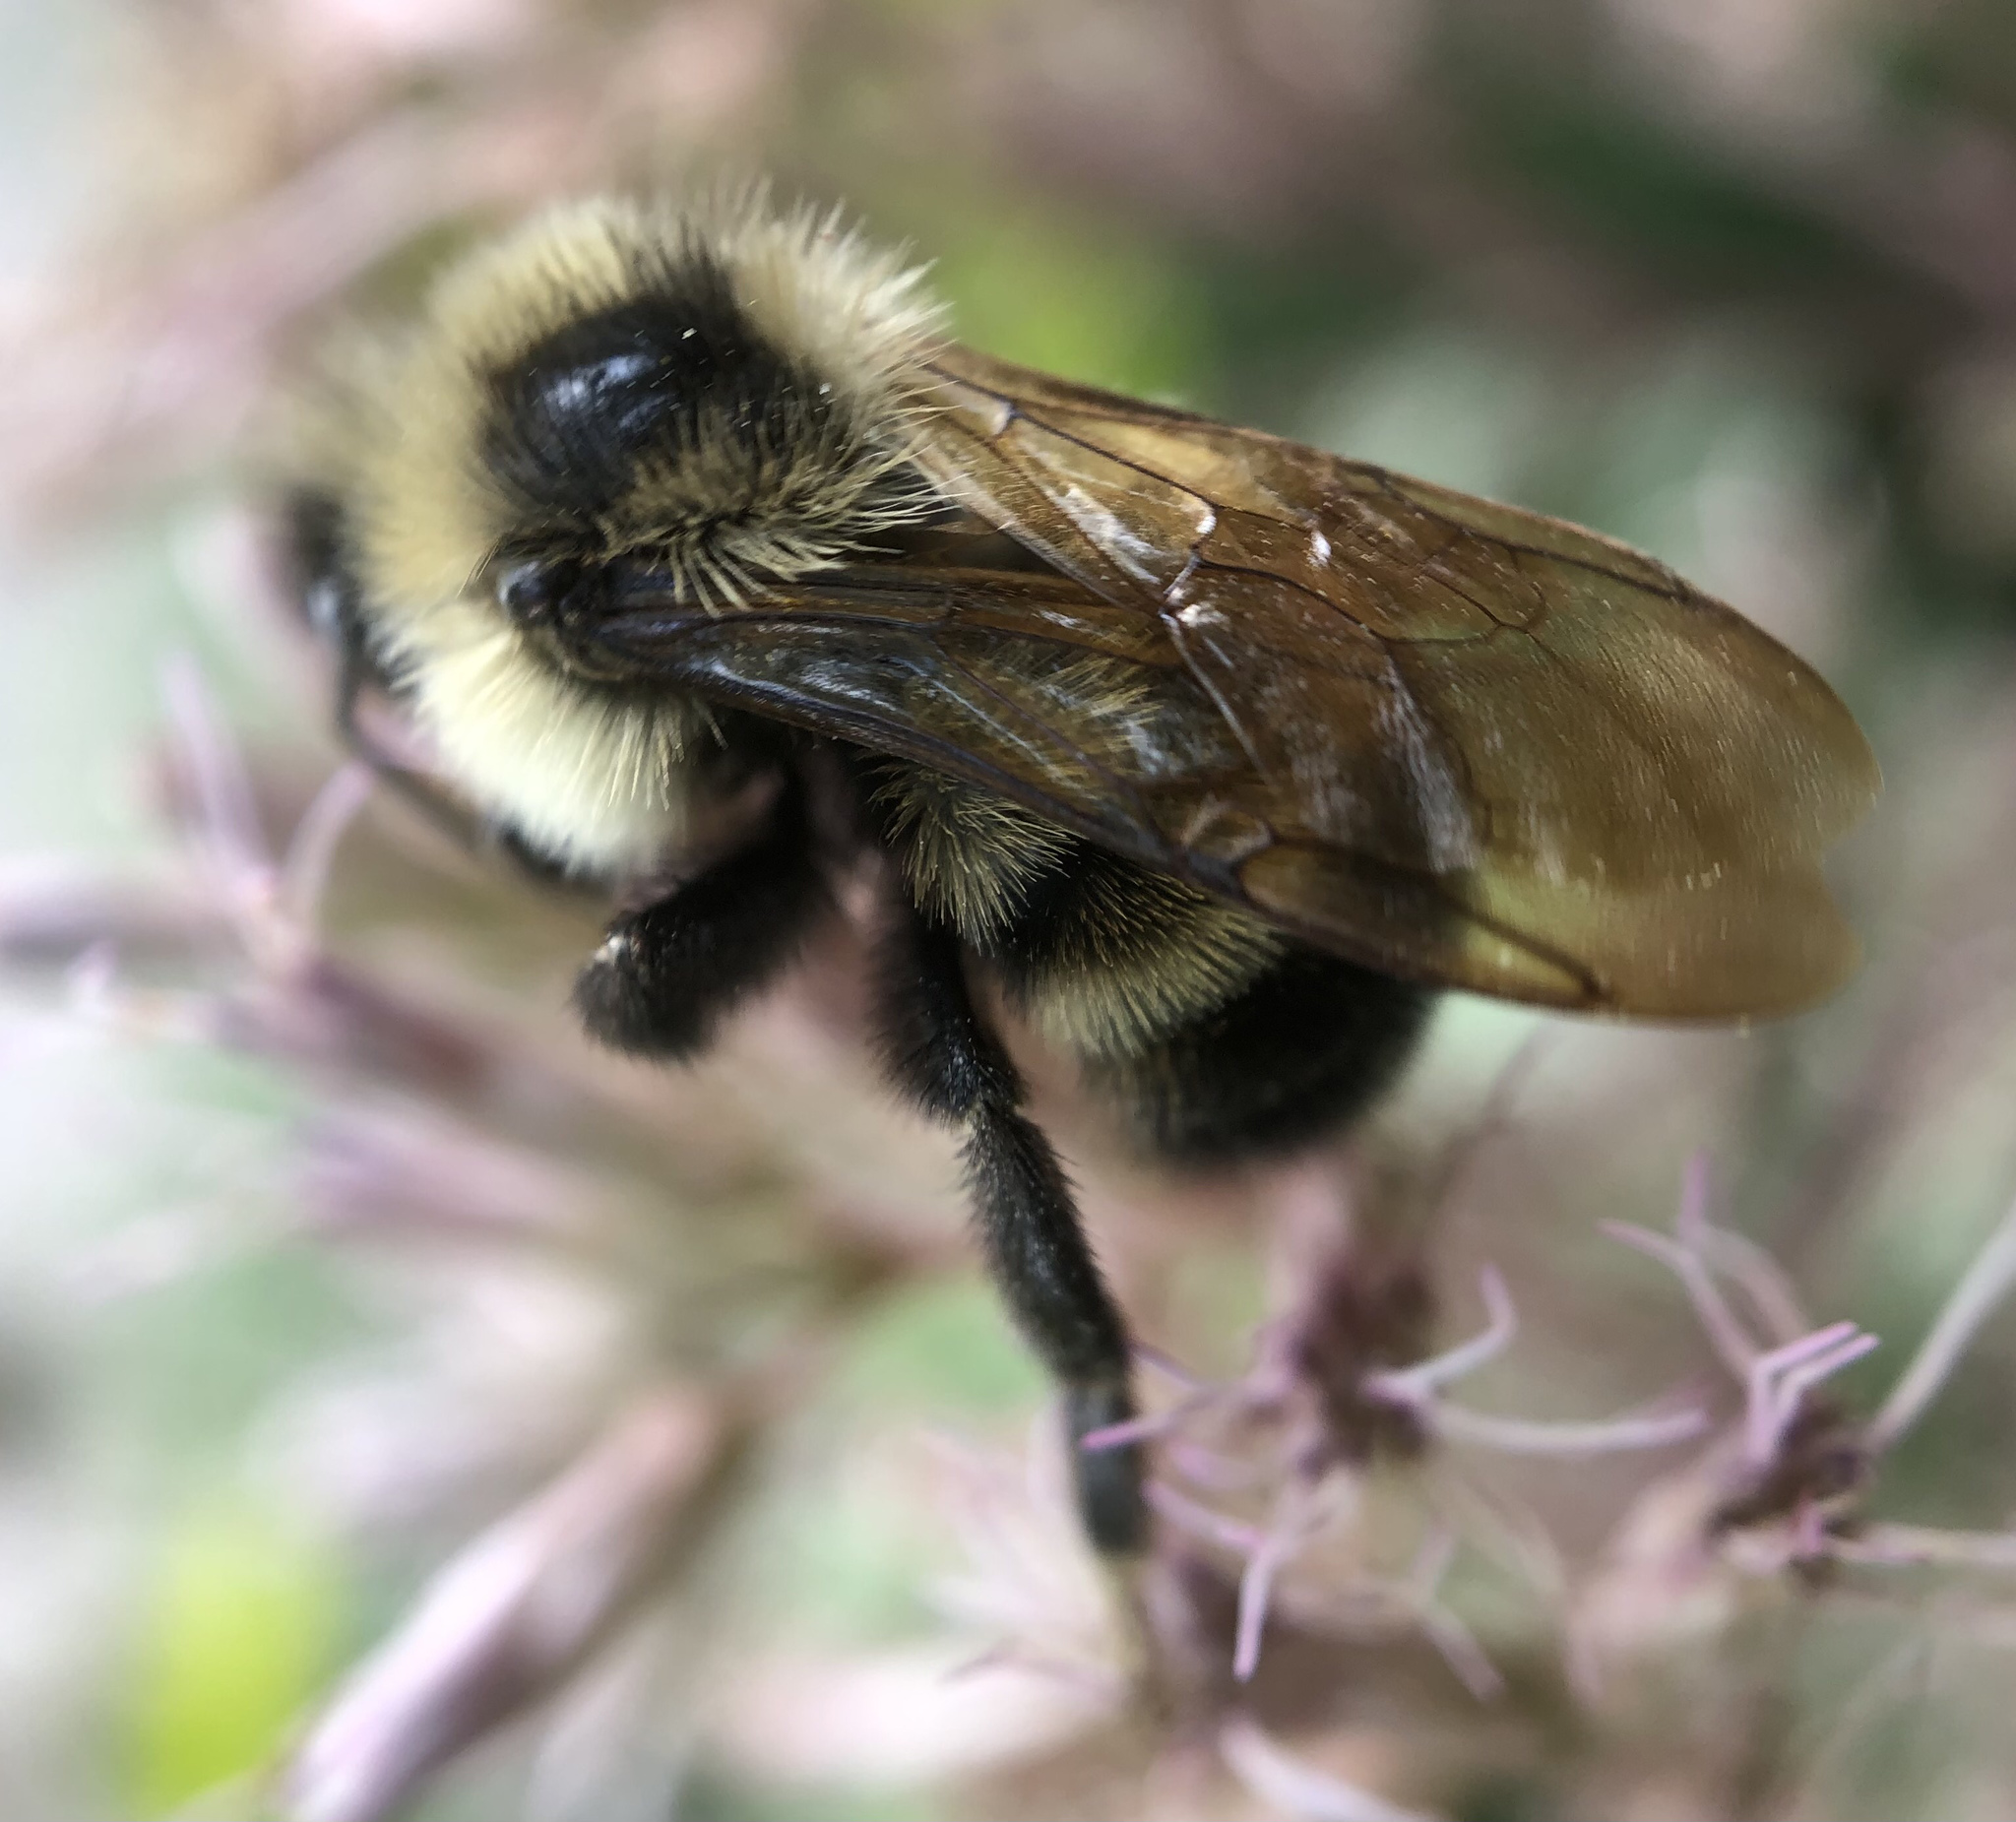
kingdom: Animalia
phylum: Arthropoda
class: Insecta
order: Hymenoptera
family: Apidae
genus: Bombus
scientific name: Bombus citrinus
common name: Lemon cuckoo bumble bee
